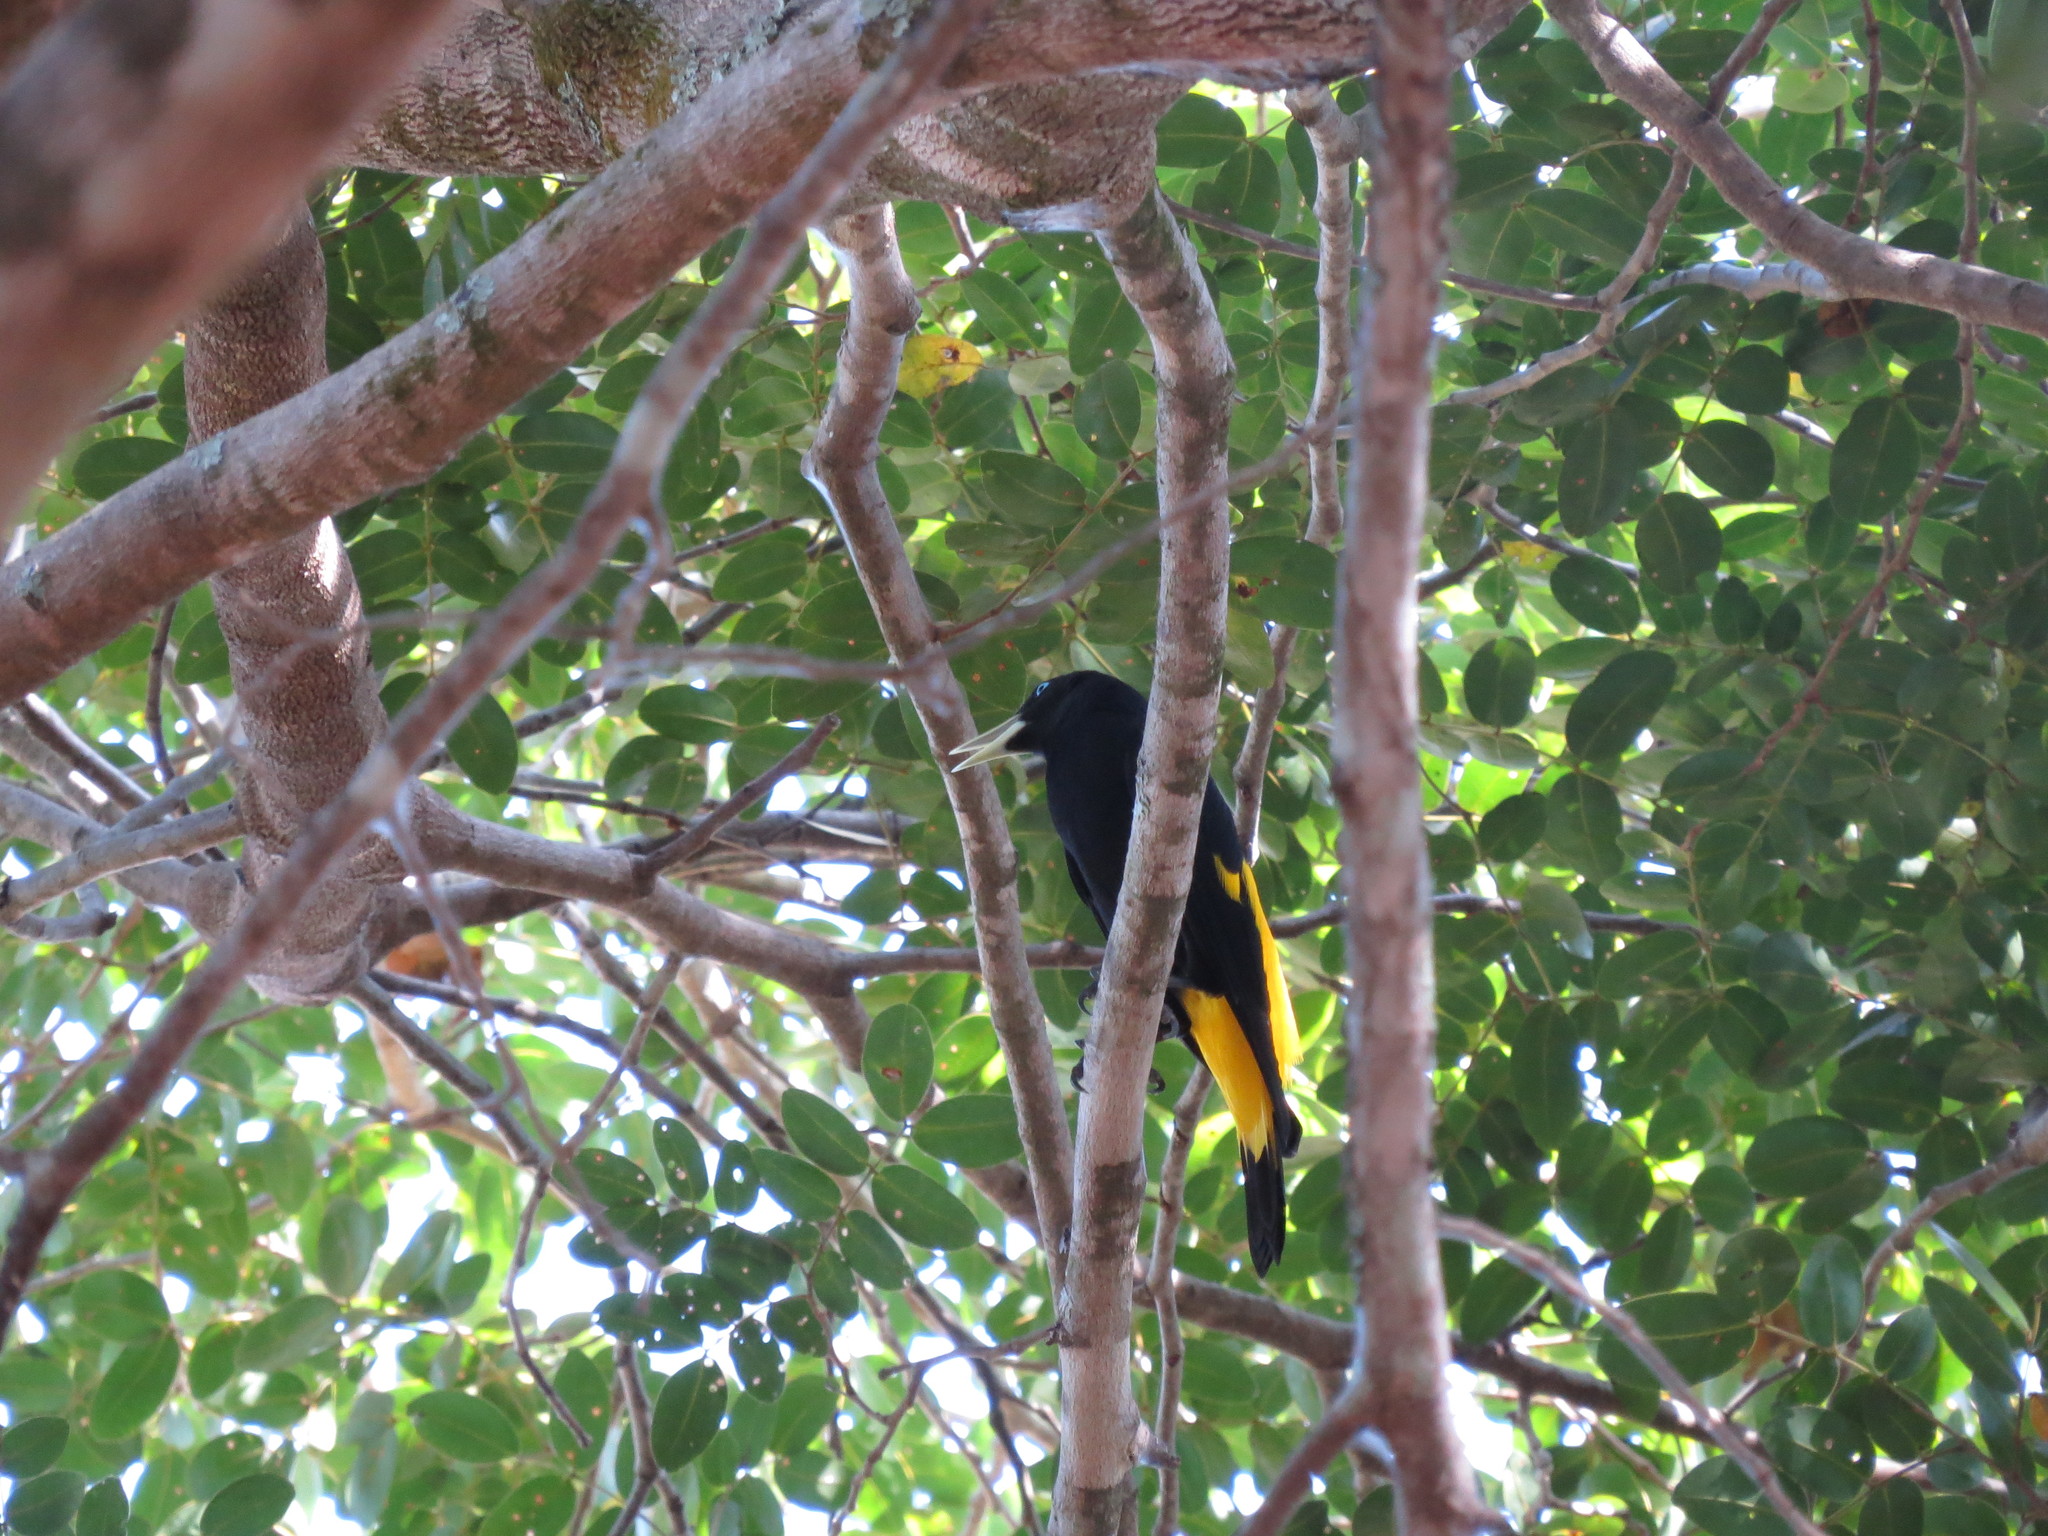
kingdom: Animalia
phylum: Chordata
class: Aves
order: Passeriformes
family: Icteridae
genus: Cacicus
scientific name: Cacicus cela
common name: Yellow-rumped cacique
